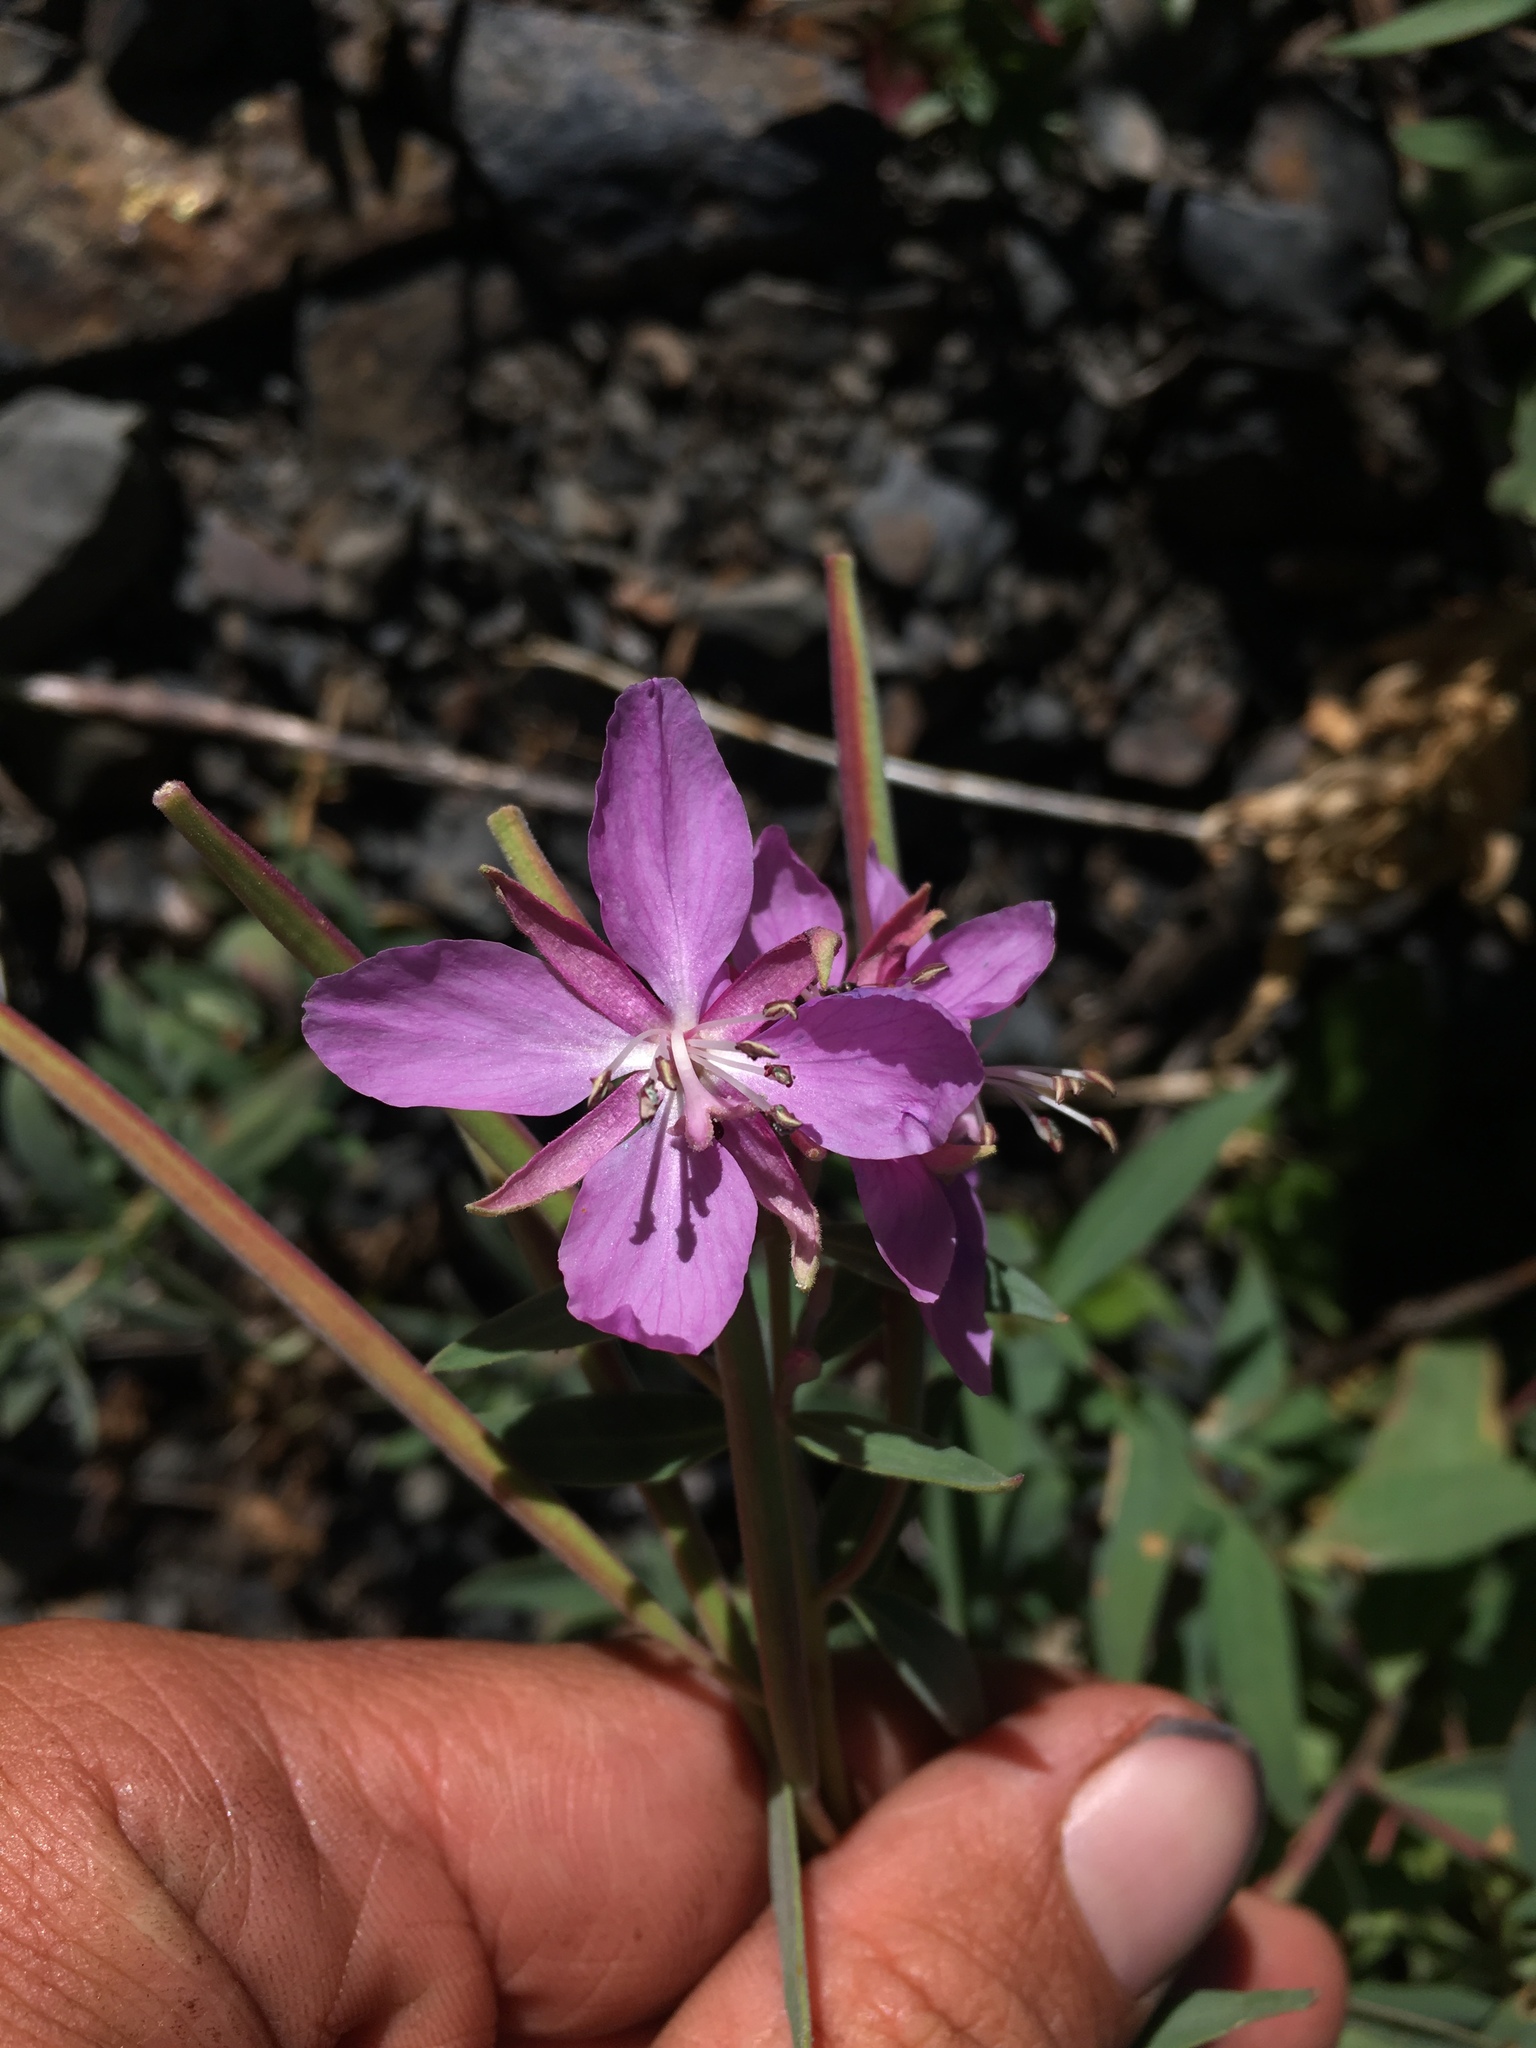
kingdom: Plantae
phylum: Tracheophyta
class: Magnoliopsida
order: Myrtales
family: Onagraceae
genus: Chamaenerion
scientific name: Chamaenerion latifolium
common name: Dwarf fireweed
